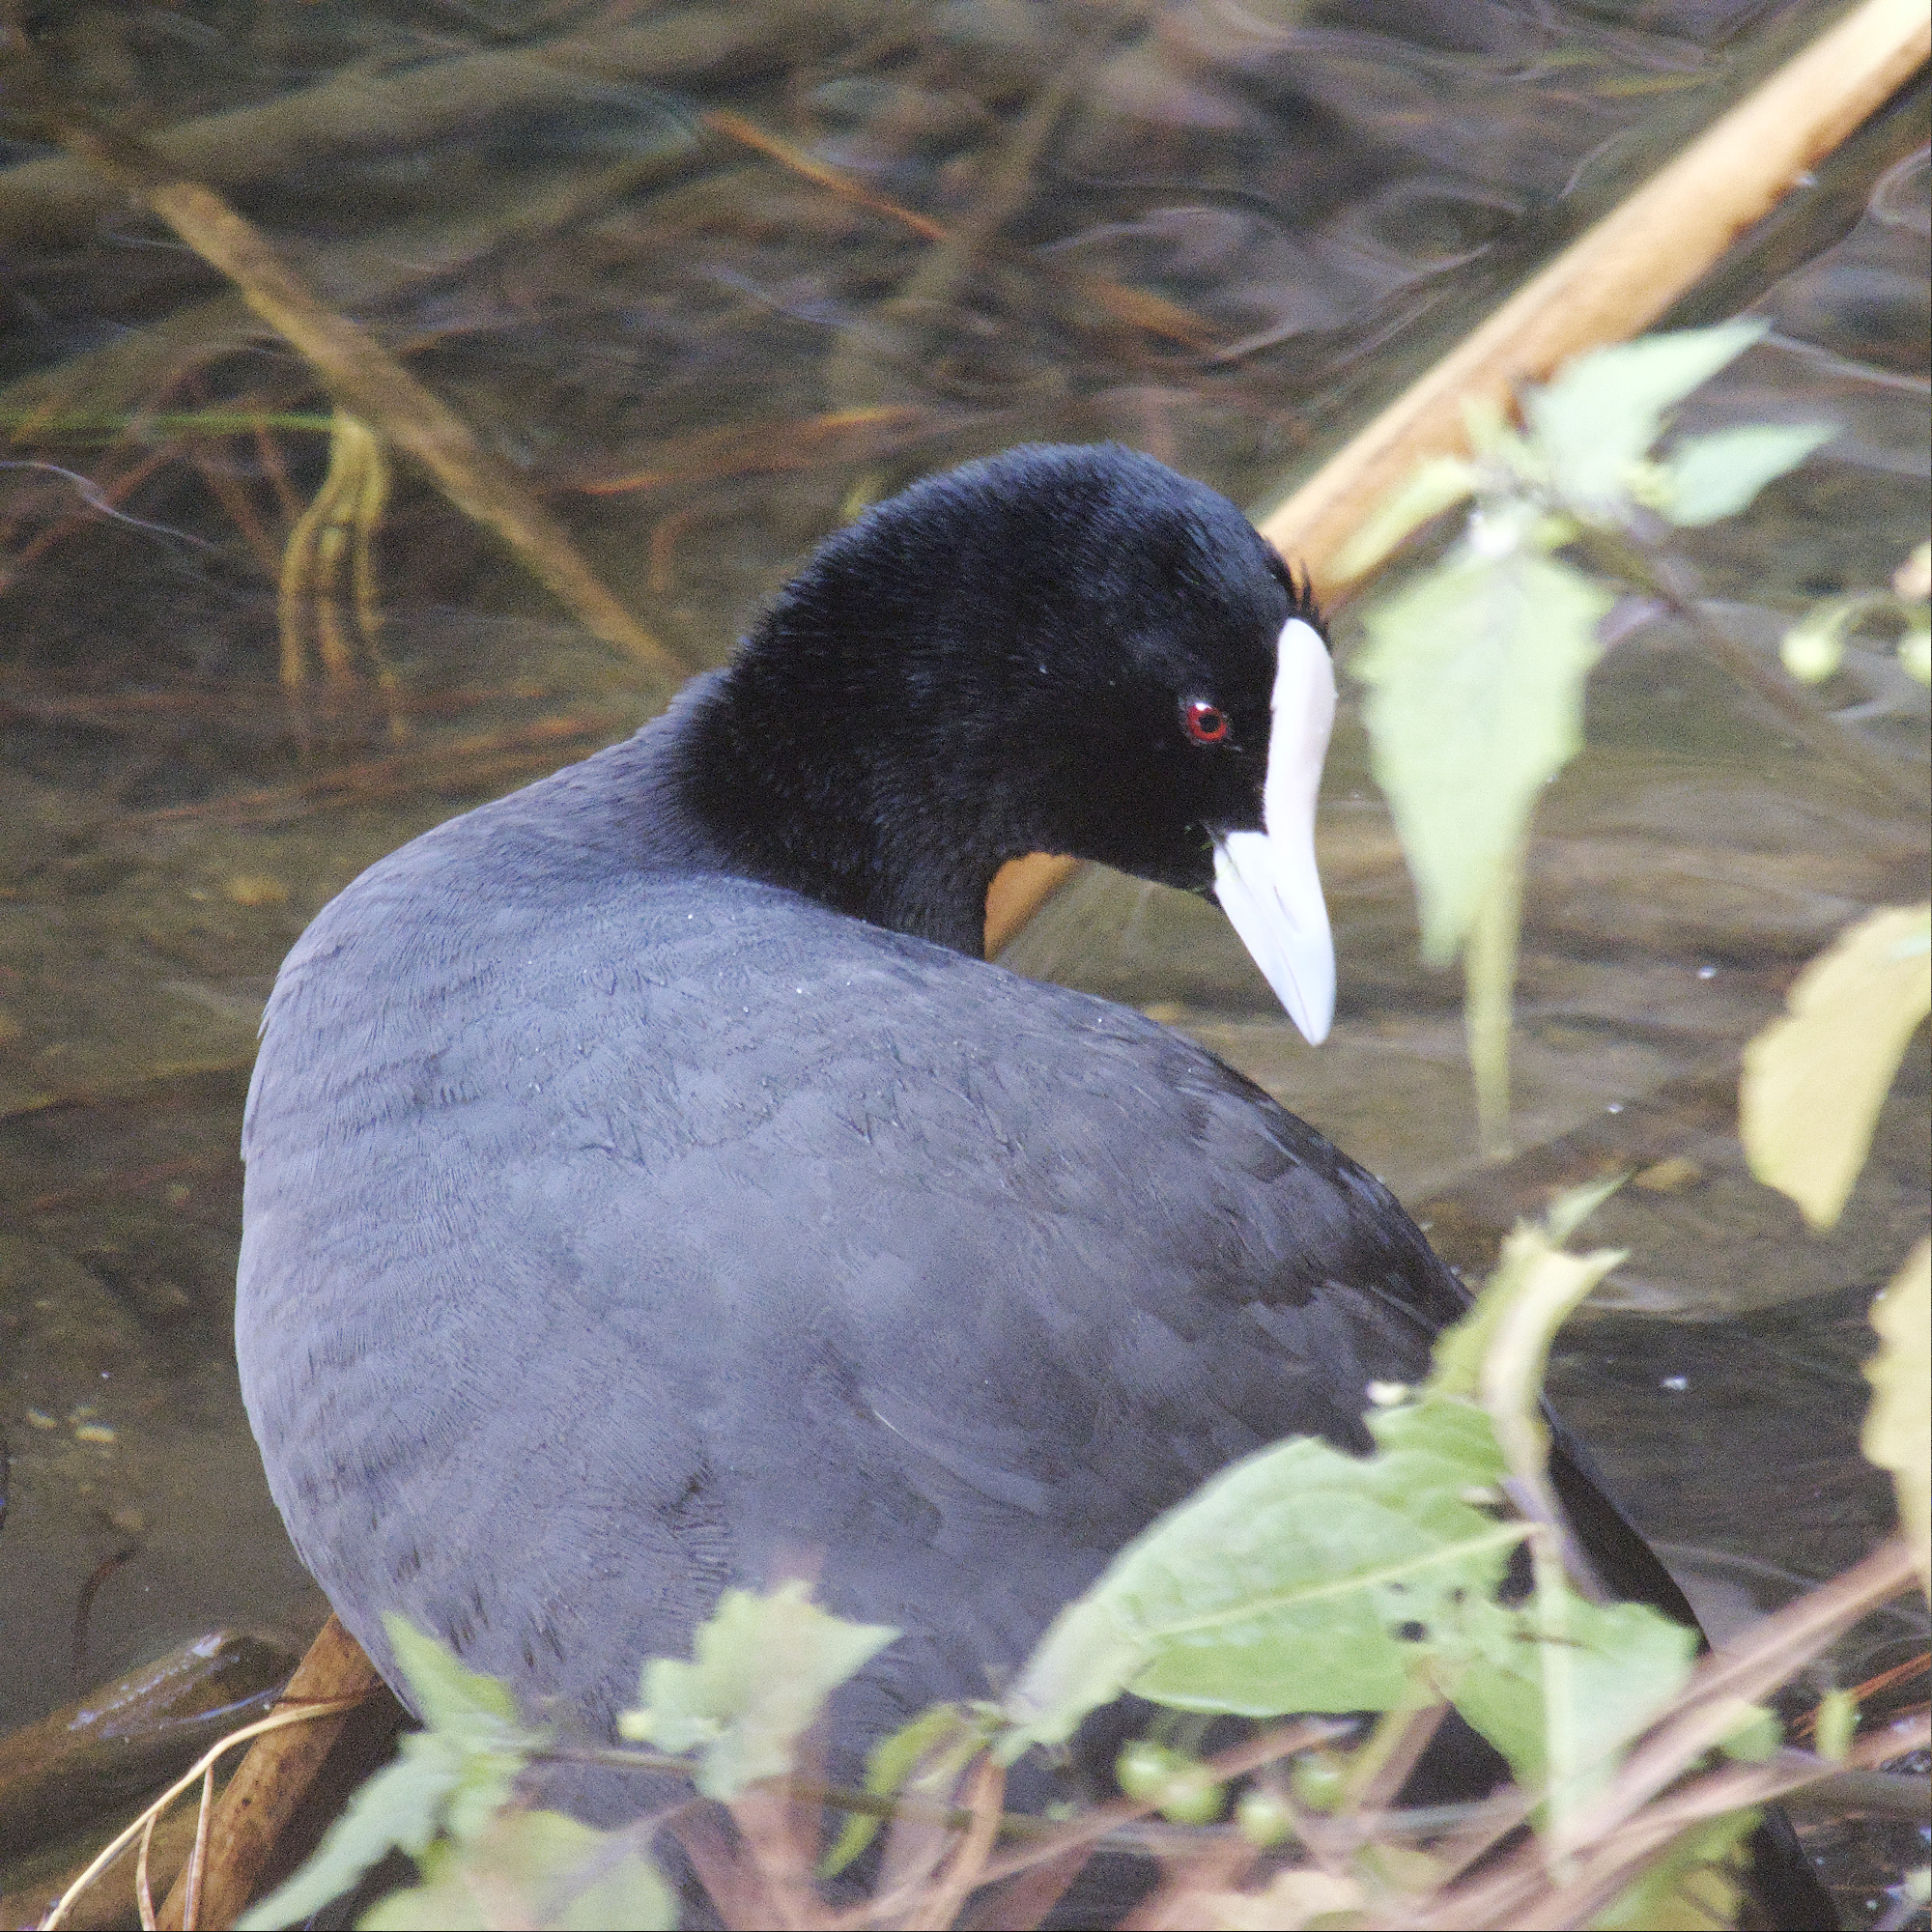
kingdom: Animalia
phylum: Chordata
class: Aves
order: Gruiformes
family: Rallidae
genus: Fulica
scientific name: Fulica atra
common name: Eurasian coot
